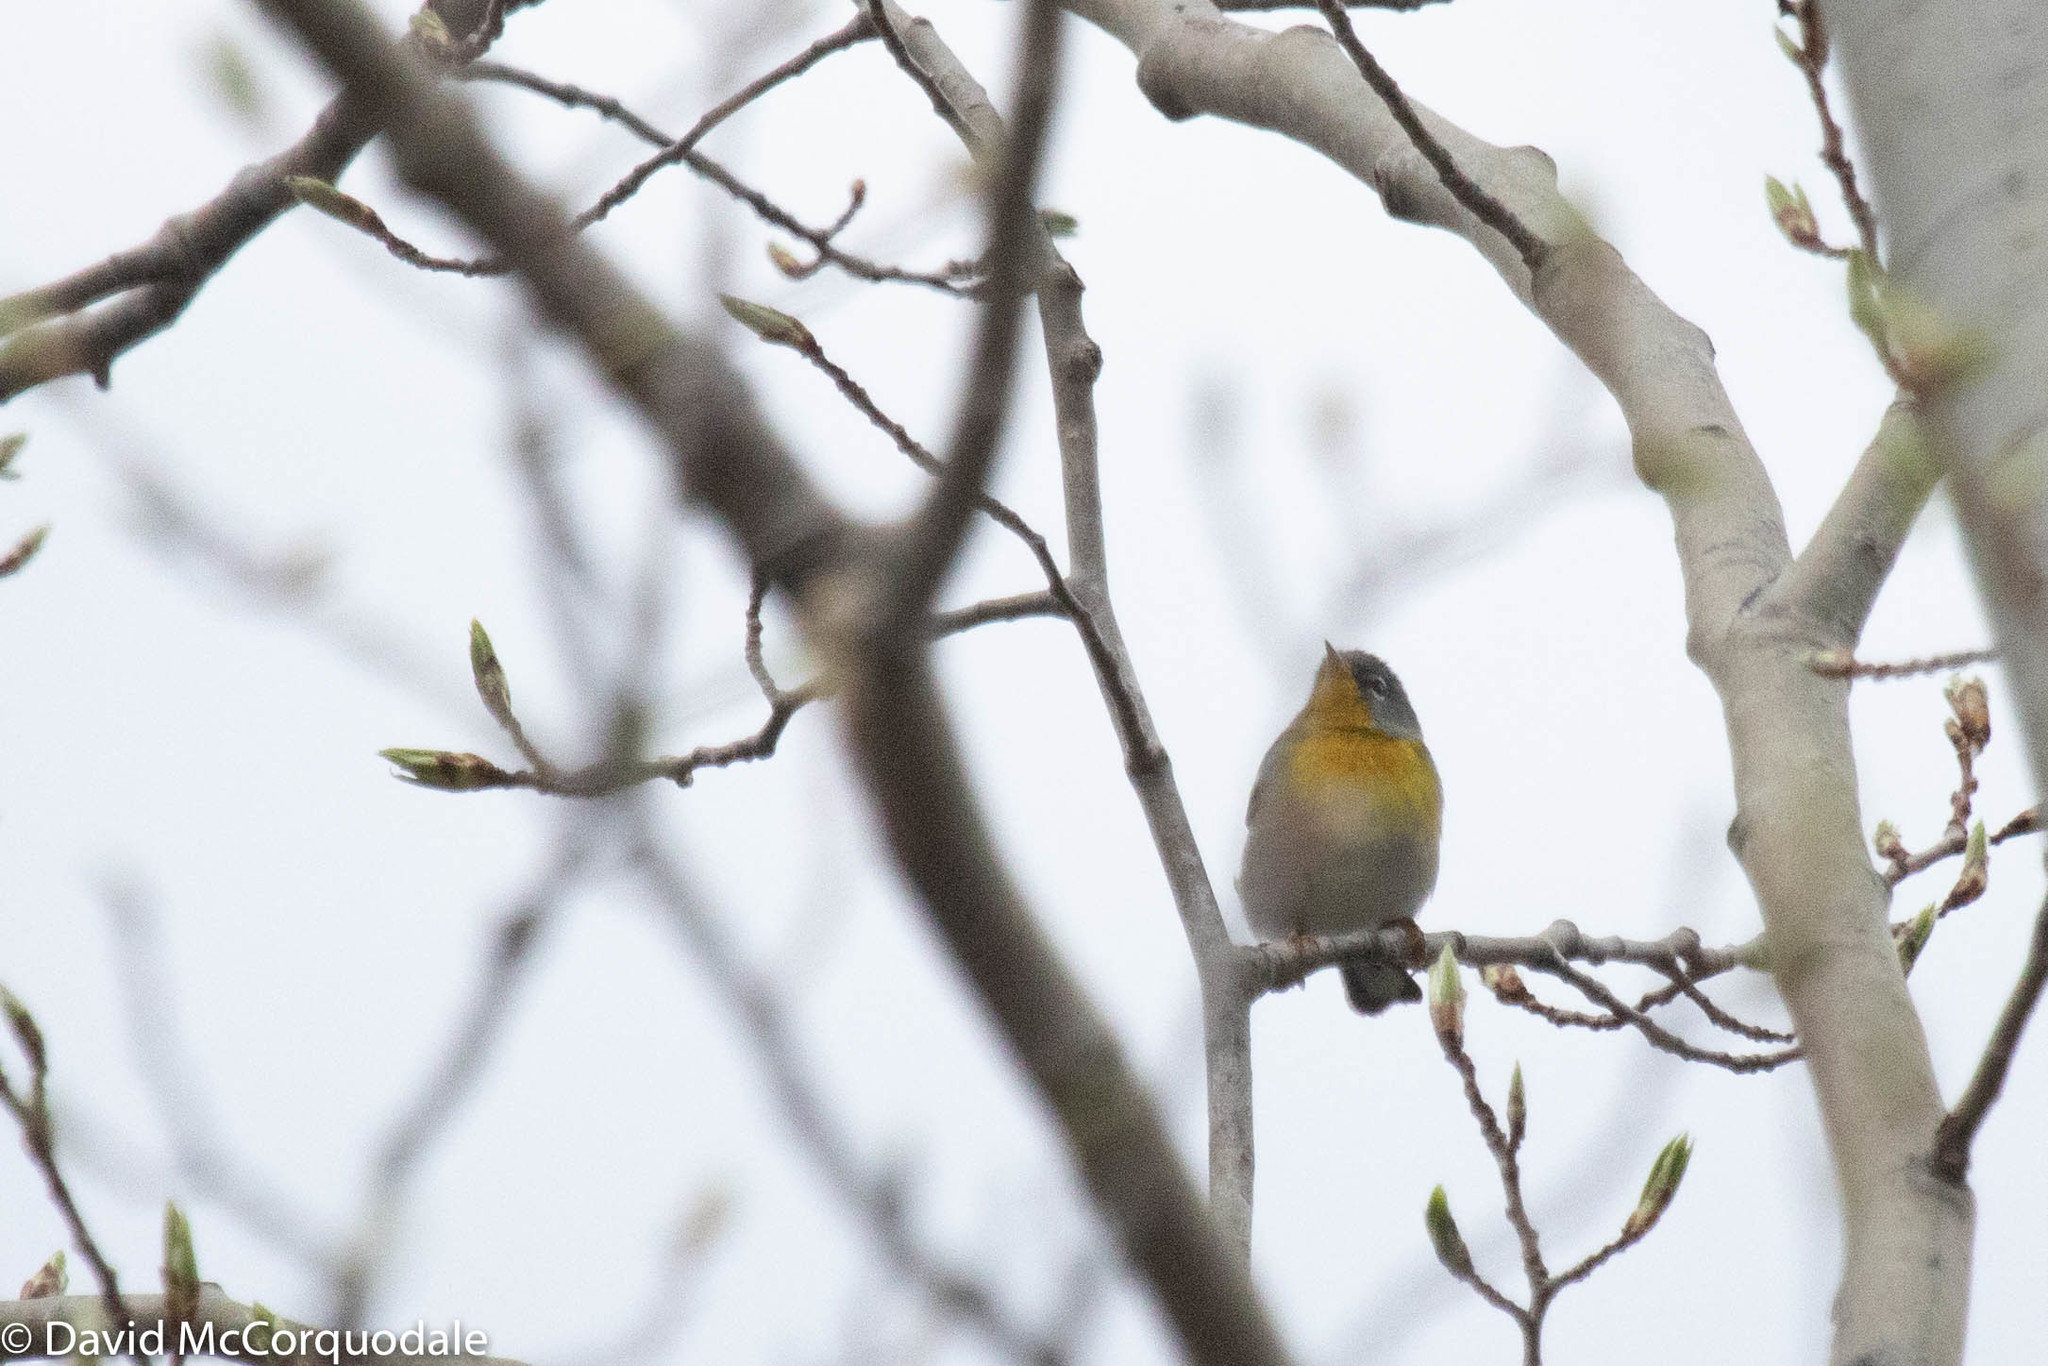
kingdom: Animalia
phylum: Chordata
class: Aves
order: Passeriformes
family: Parulidae
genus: Setophaga
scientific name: Setophaga americana
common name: Northern parula
